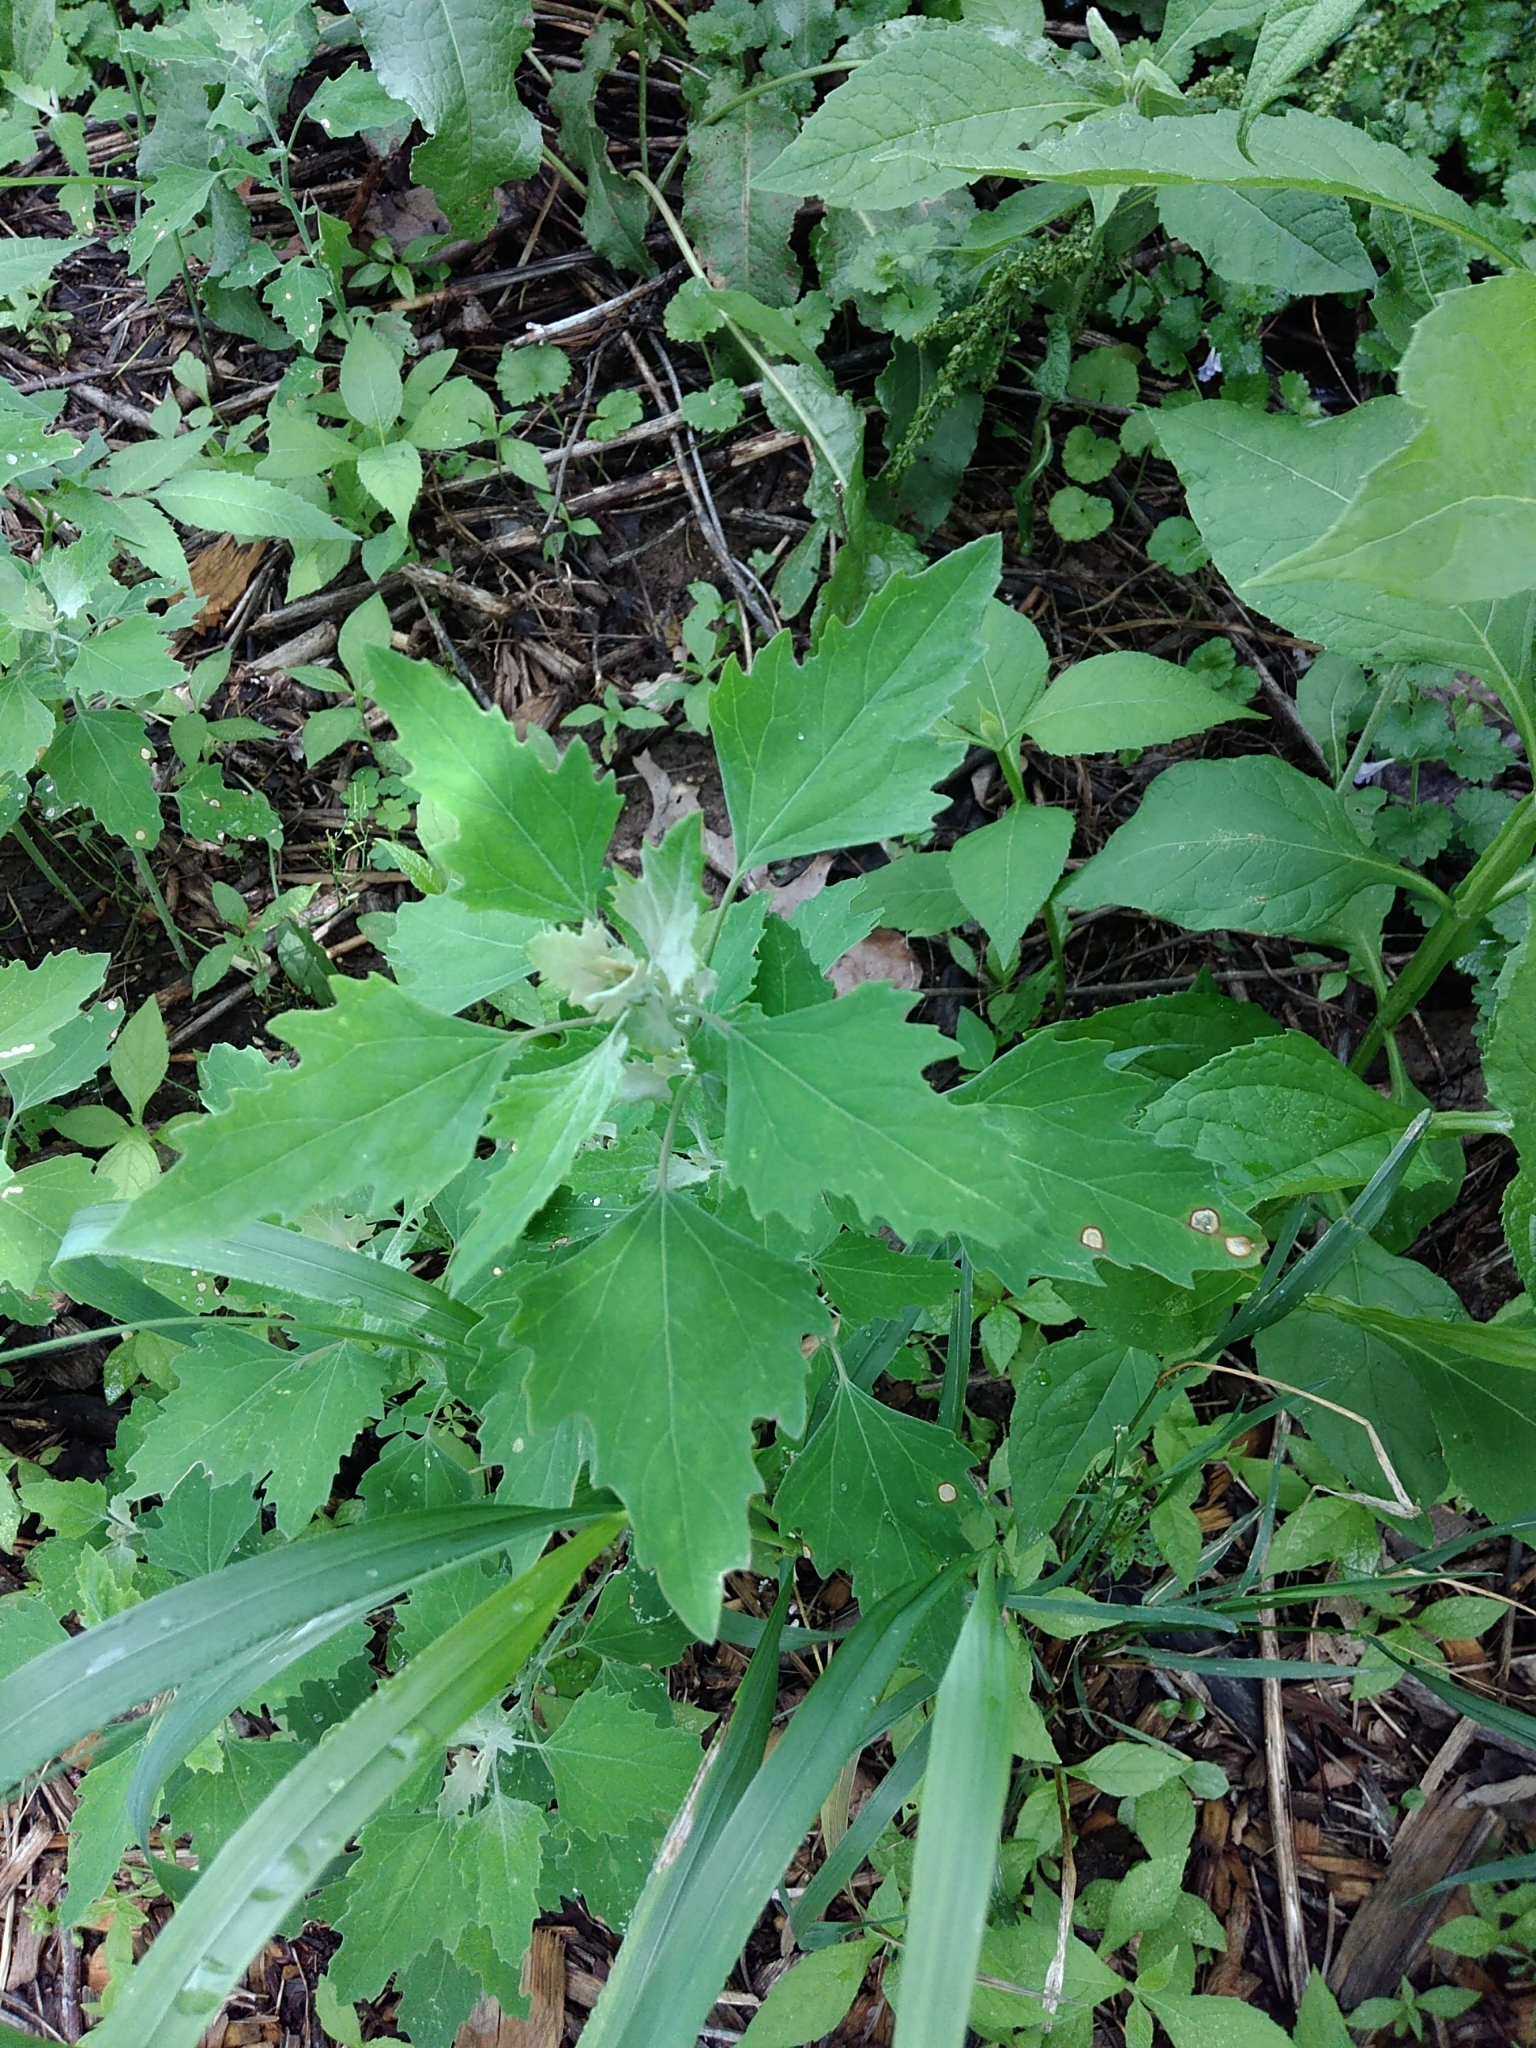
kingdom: Plantae
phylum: Tracheophyta
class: Magnoliopsida
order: Caryophyllales
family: Amaranthaceae
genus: Chenopodium
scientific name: Chenopodium album
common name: Fat-hen
